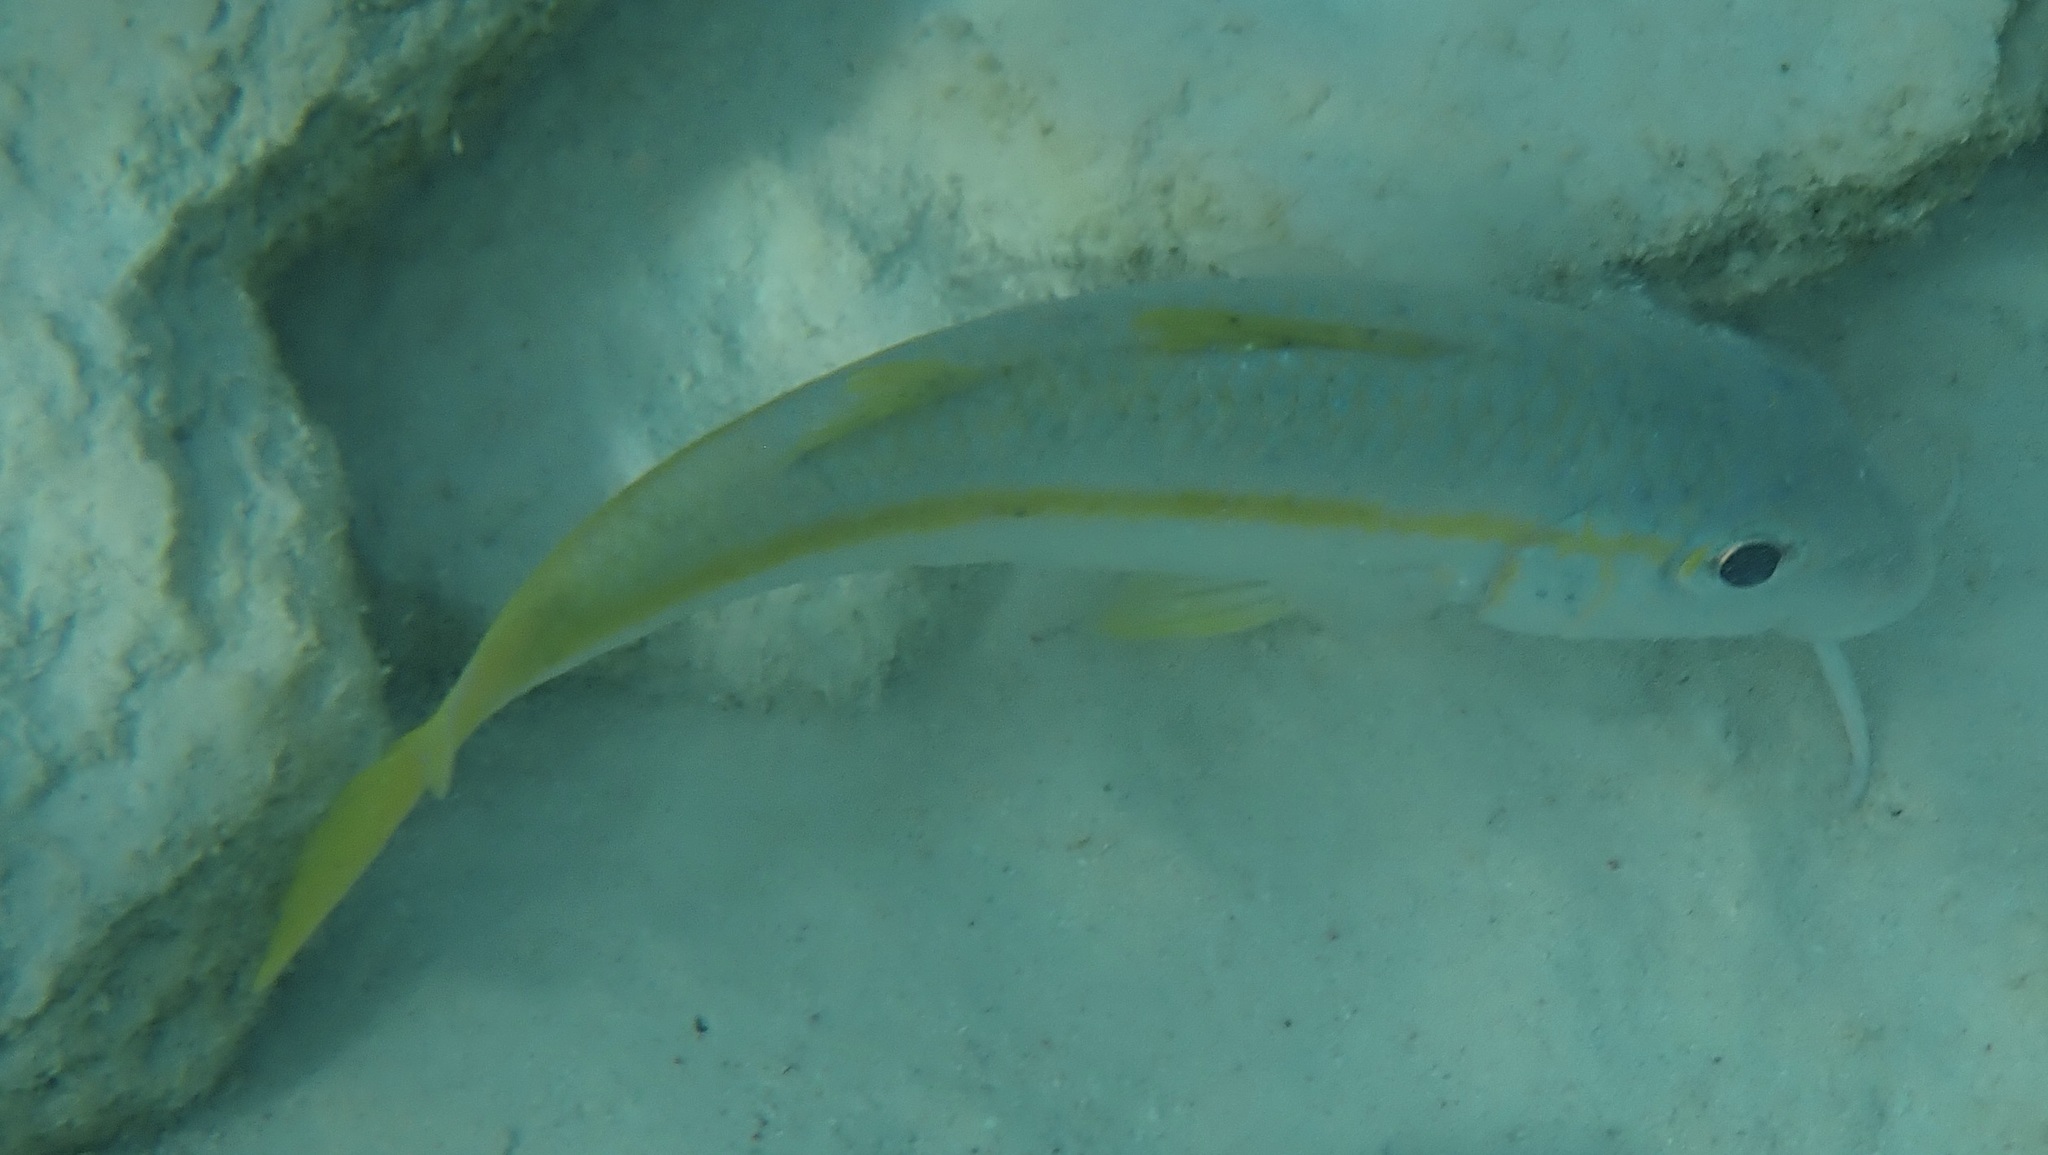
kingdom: Animalia
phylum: Chordata
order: Perciformes
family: Mullidae
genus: Mulloidichthys
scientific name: Mulloidichthys martinicus
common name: Yellow goatfish
